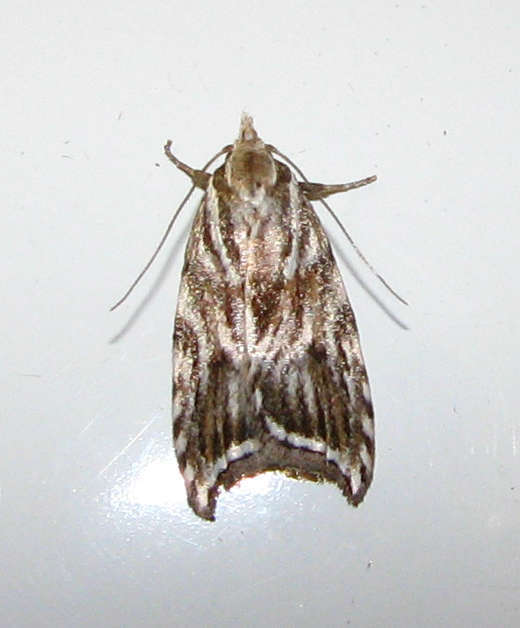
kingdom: Animalia
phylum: Arthropoda
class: Insecta
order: Lepidoptera
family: Oecophoridae
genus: Tortricopsis
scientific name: Tortricopsis aulacois
